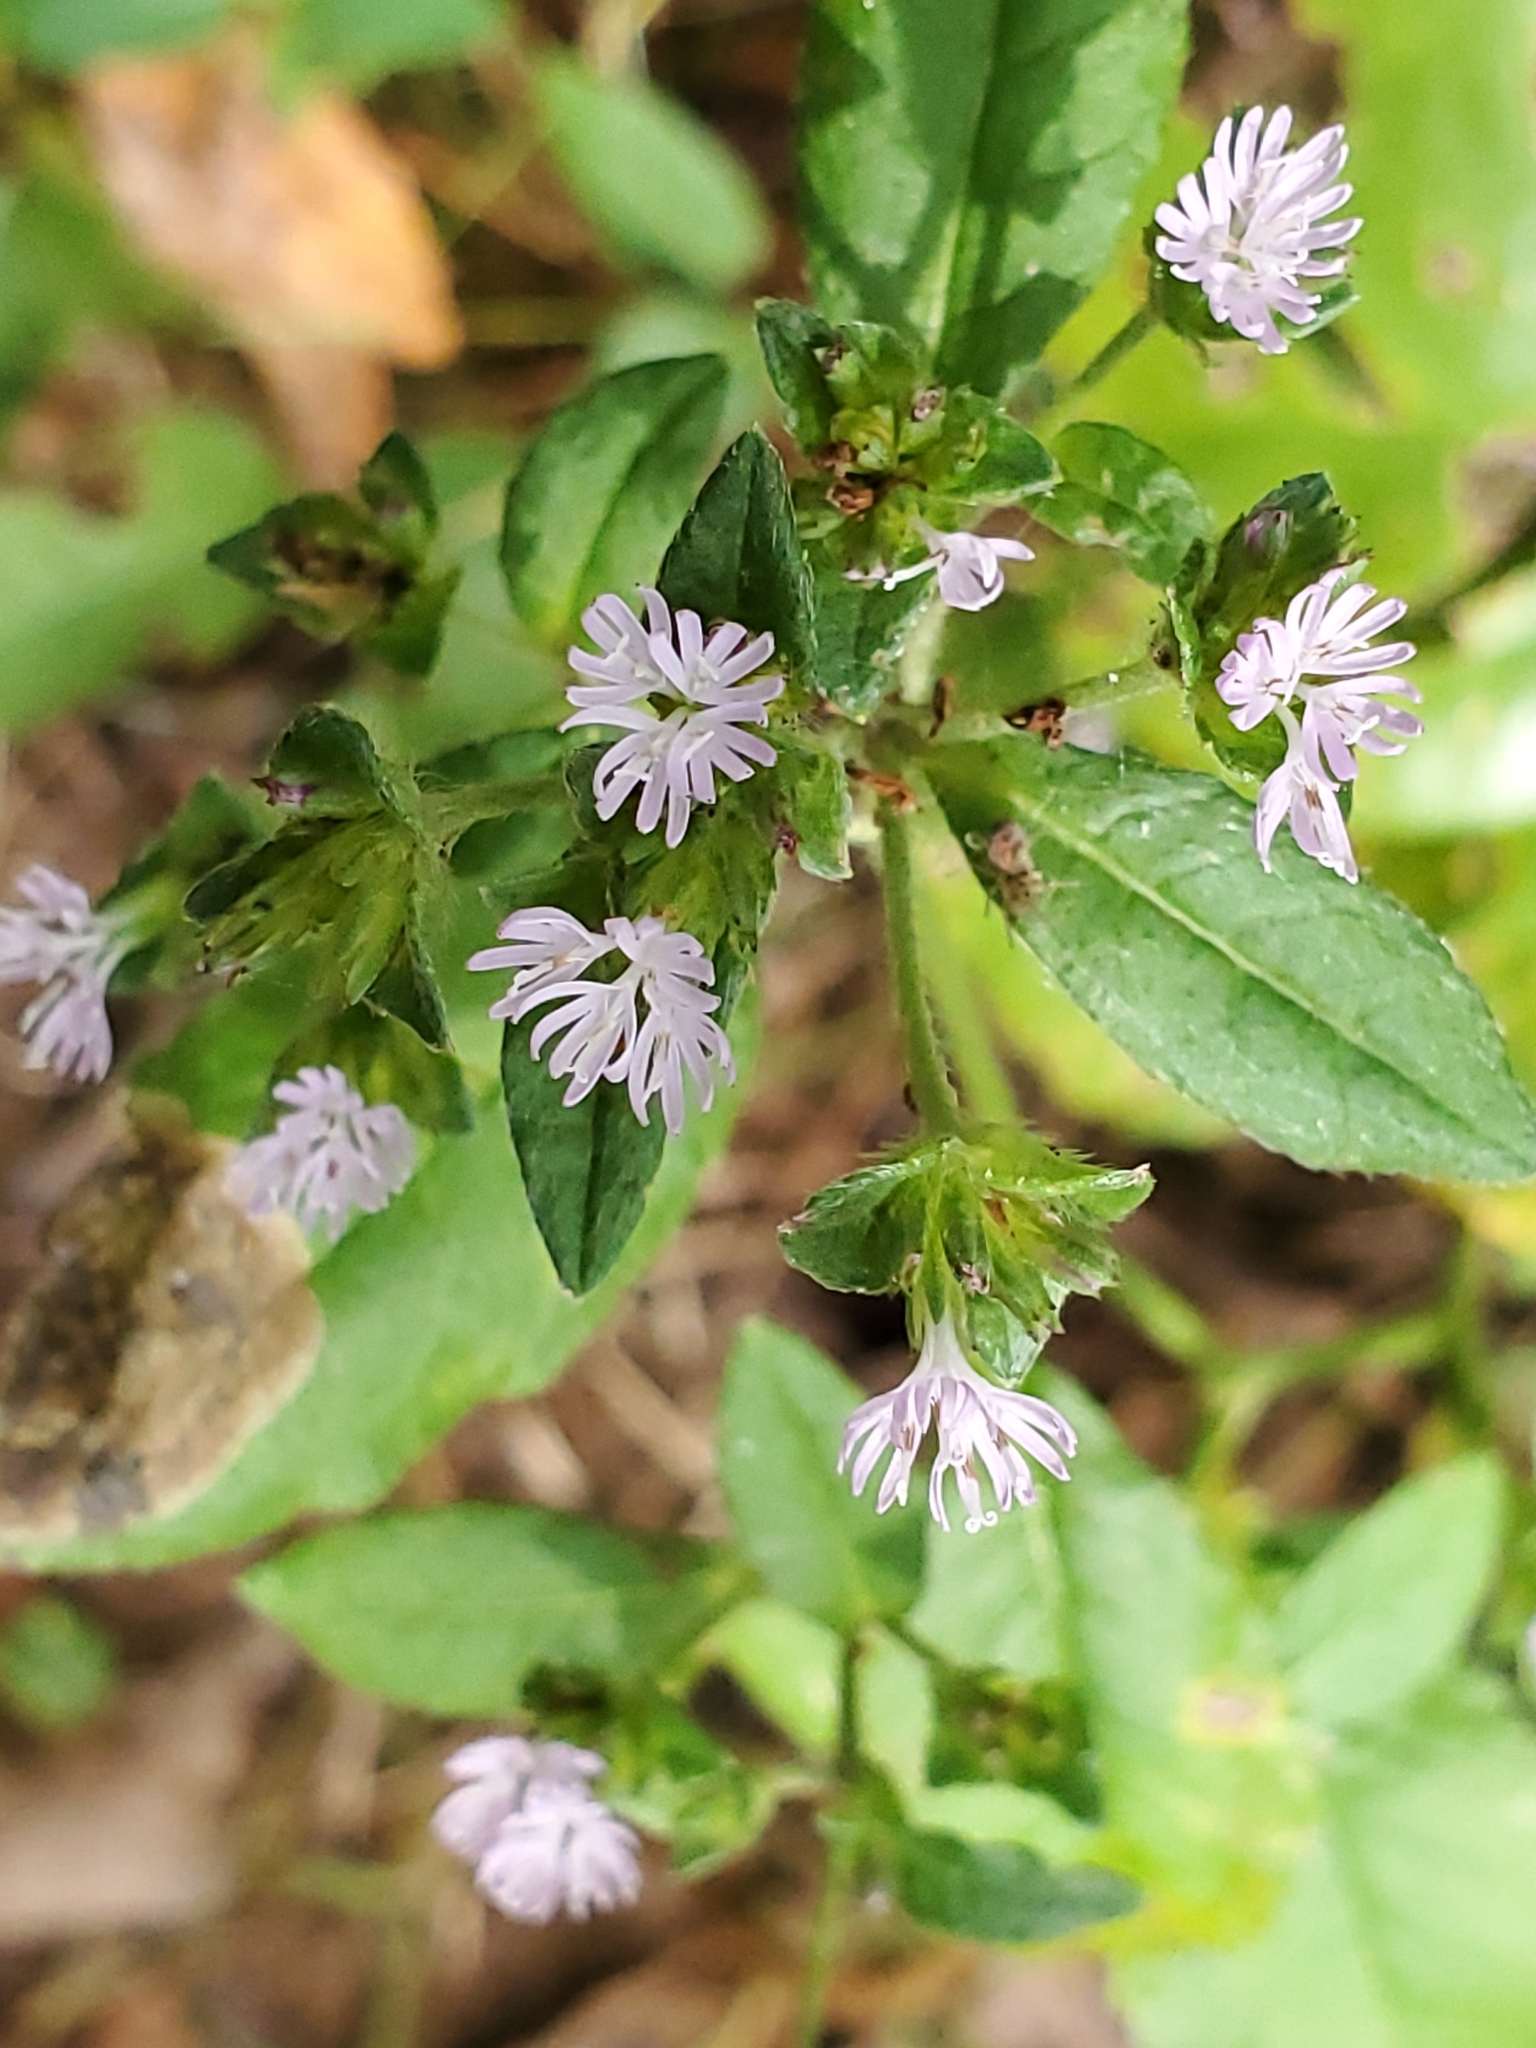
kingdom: Plantae
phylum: Tracheophyta
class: Magnoliopsida
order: Asterales
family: Asteraceae
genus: Elephantopus
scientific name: Elephantopus carolinianus
